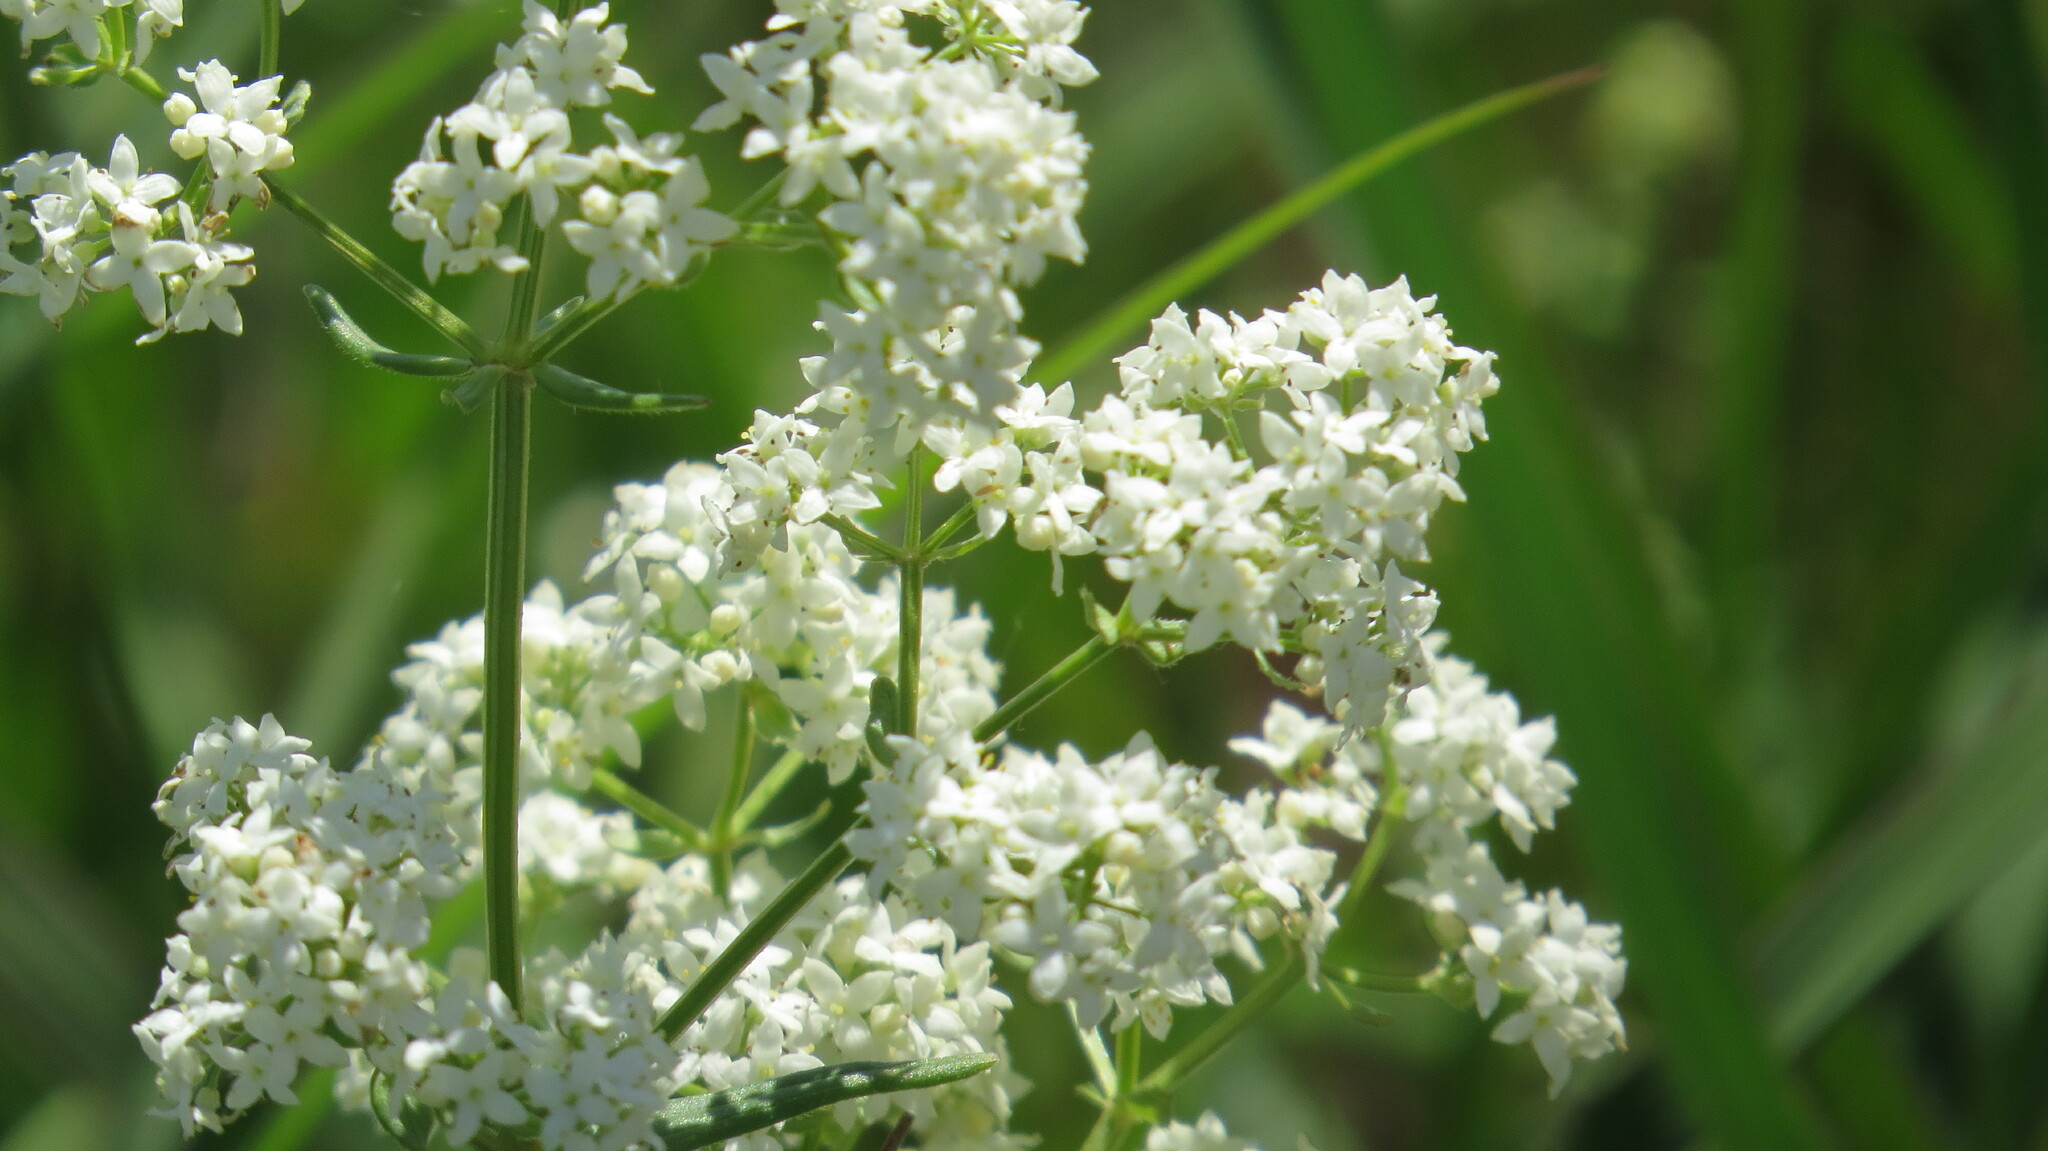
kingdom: Plantae
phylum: Tracheophyta
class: Magnoliopsida
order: Gentianales
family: Rubiaceae
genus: Galium
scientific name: Galium boreale
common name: Northern bedstraw
